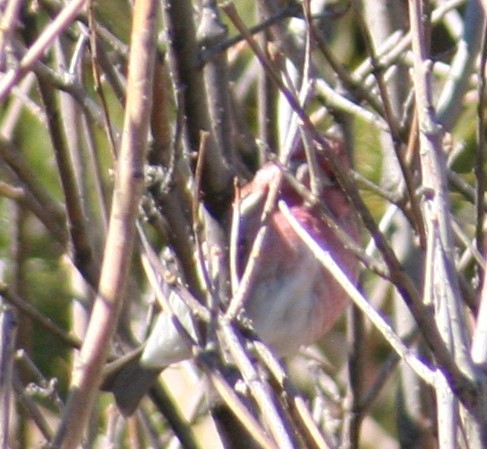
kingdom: Animalia
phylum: Chordata
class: Aves
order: Passeriformes
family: Fringillidae
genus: Haemorhous
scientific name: Haemorhous purpureus
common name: Purple finch
